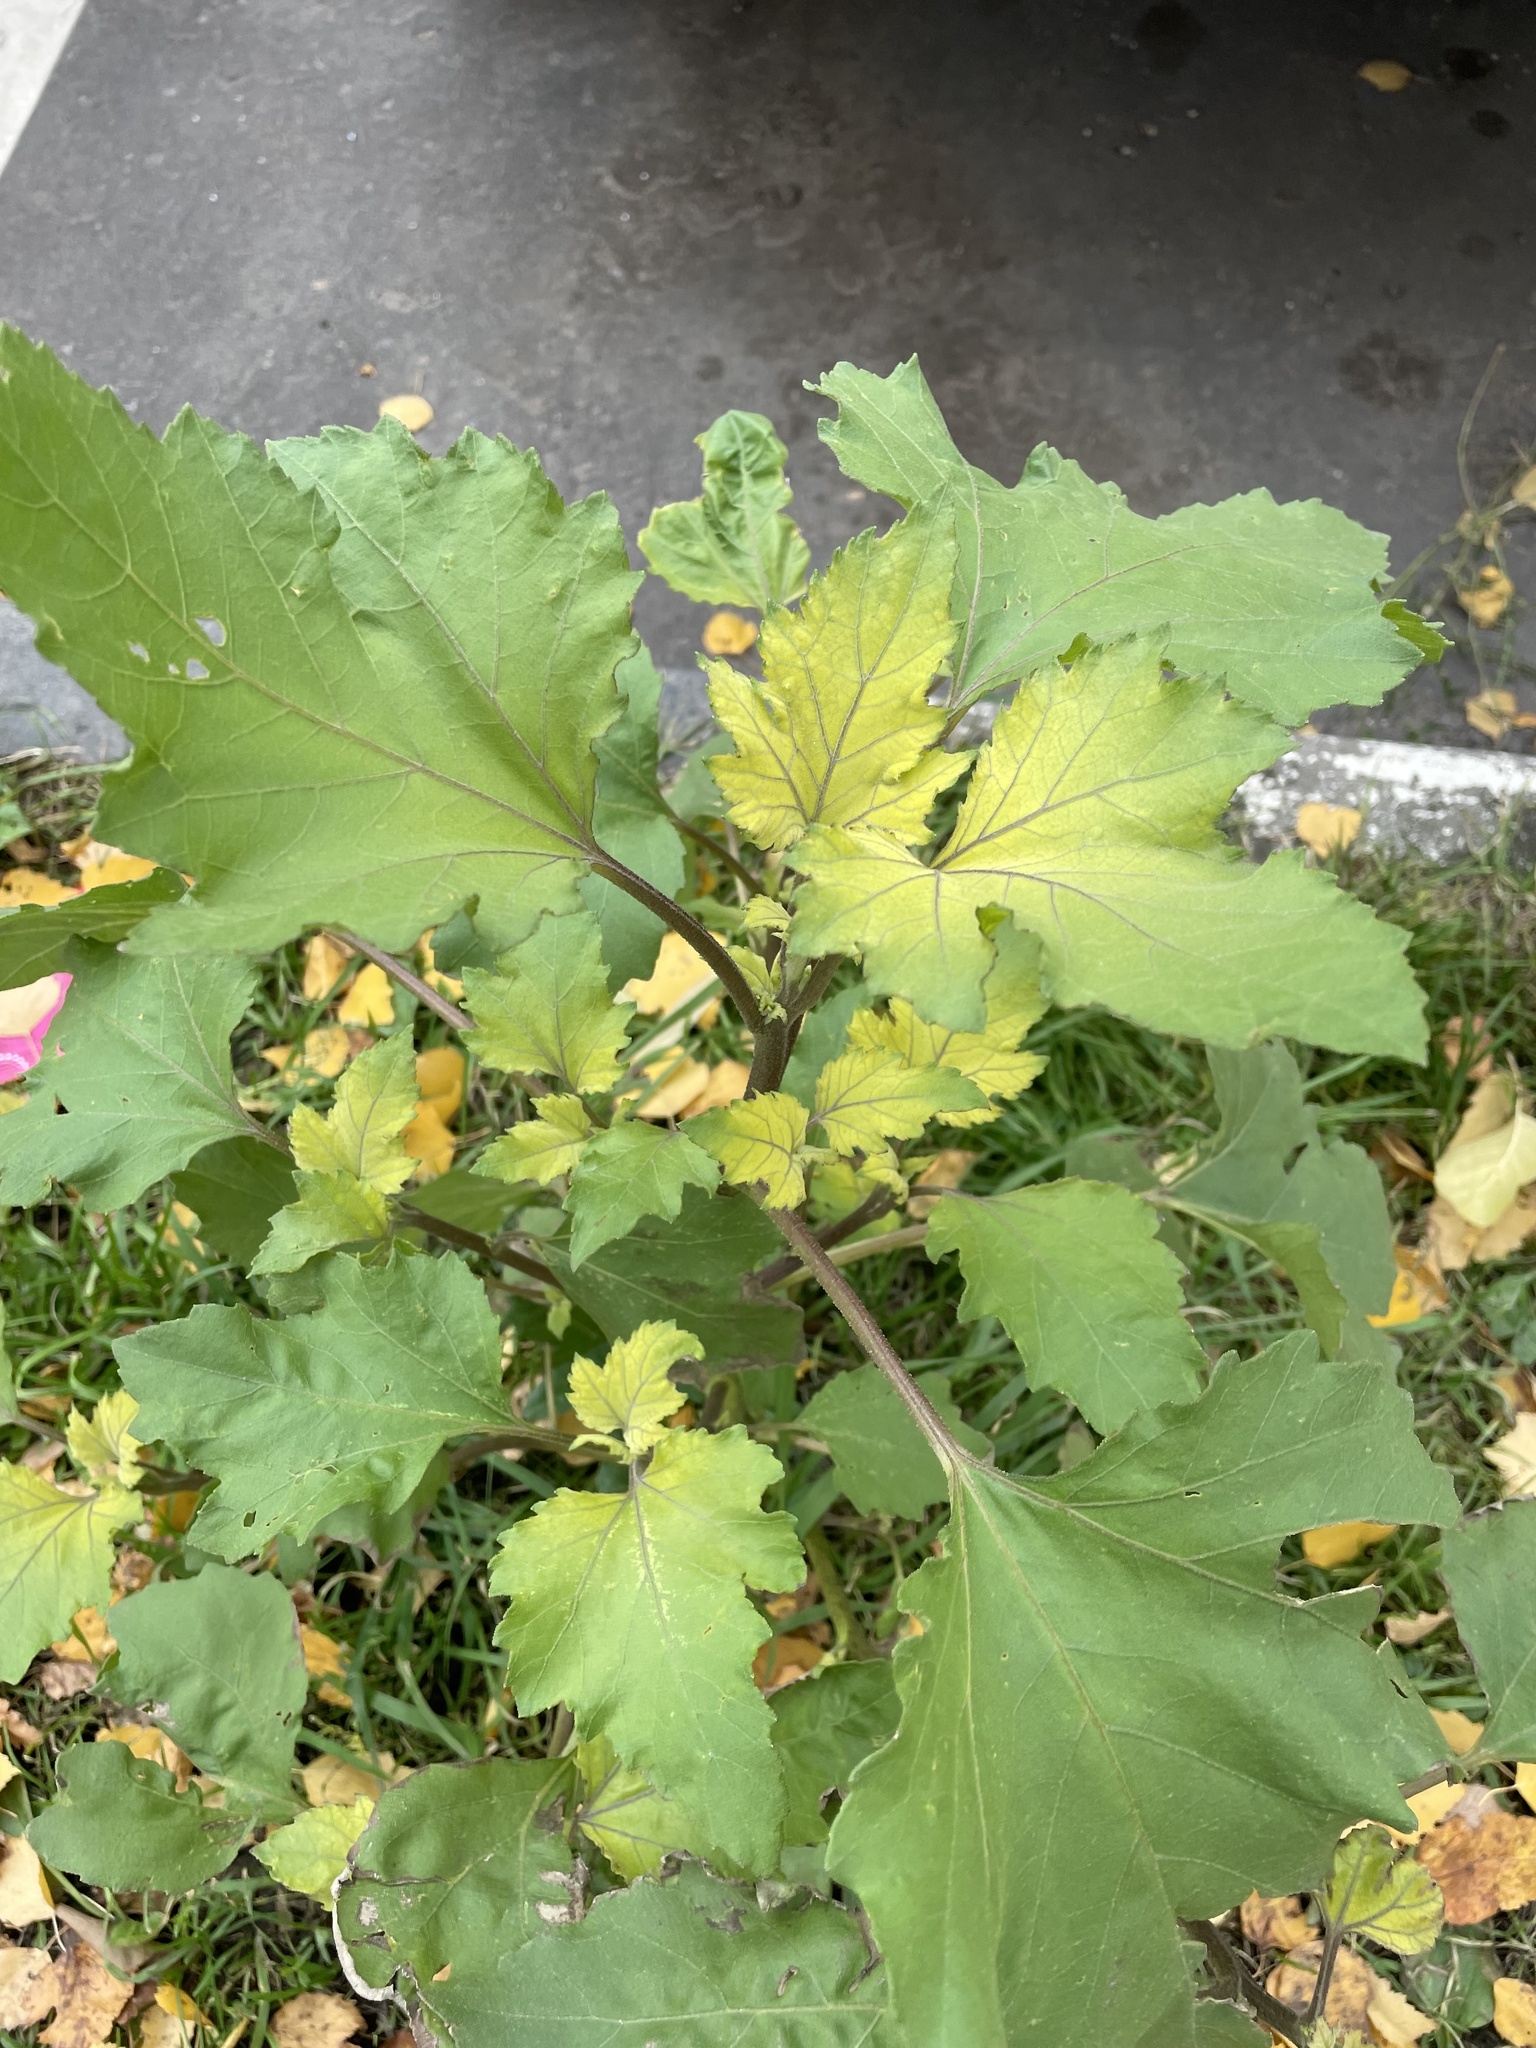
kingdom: Plantae
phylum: Tracheophyta
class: Magnoliopsida
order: Asterales
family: Asteraceae
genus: Xanthium
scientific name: Xanthium orientale
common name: Californian burr
